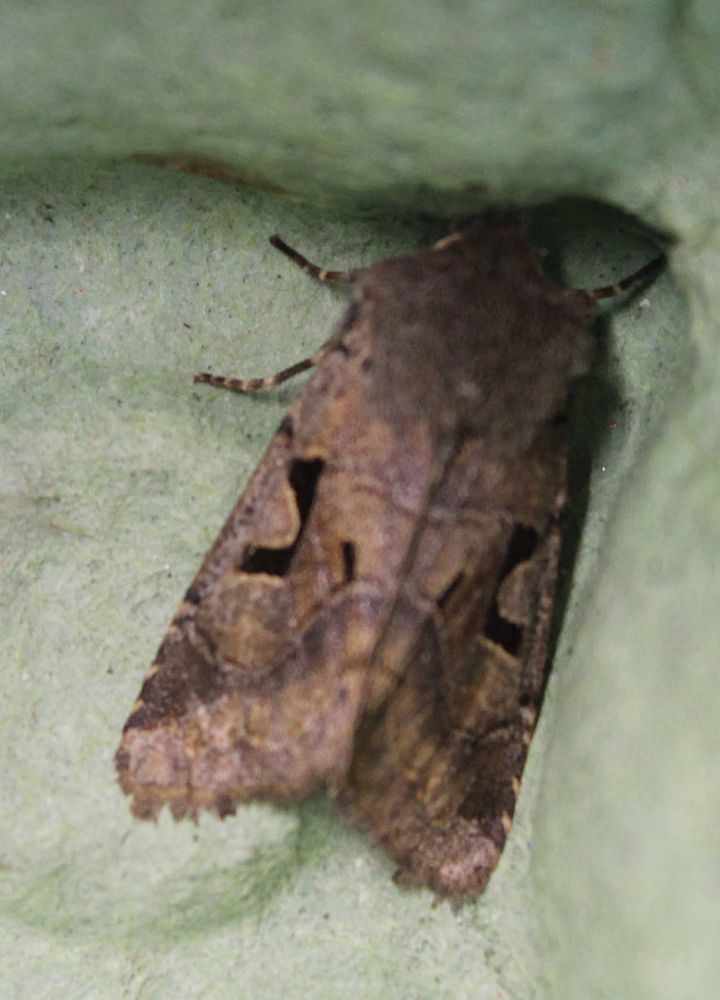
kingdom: Animalia
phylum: Arthropoda
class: Insecta
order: Lepidoptera
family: Noctuidae
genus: Orthosia
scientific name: Orthosia gothica
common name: Hebrew character
